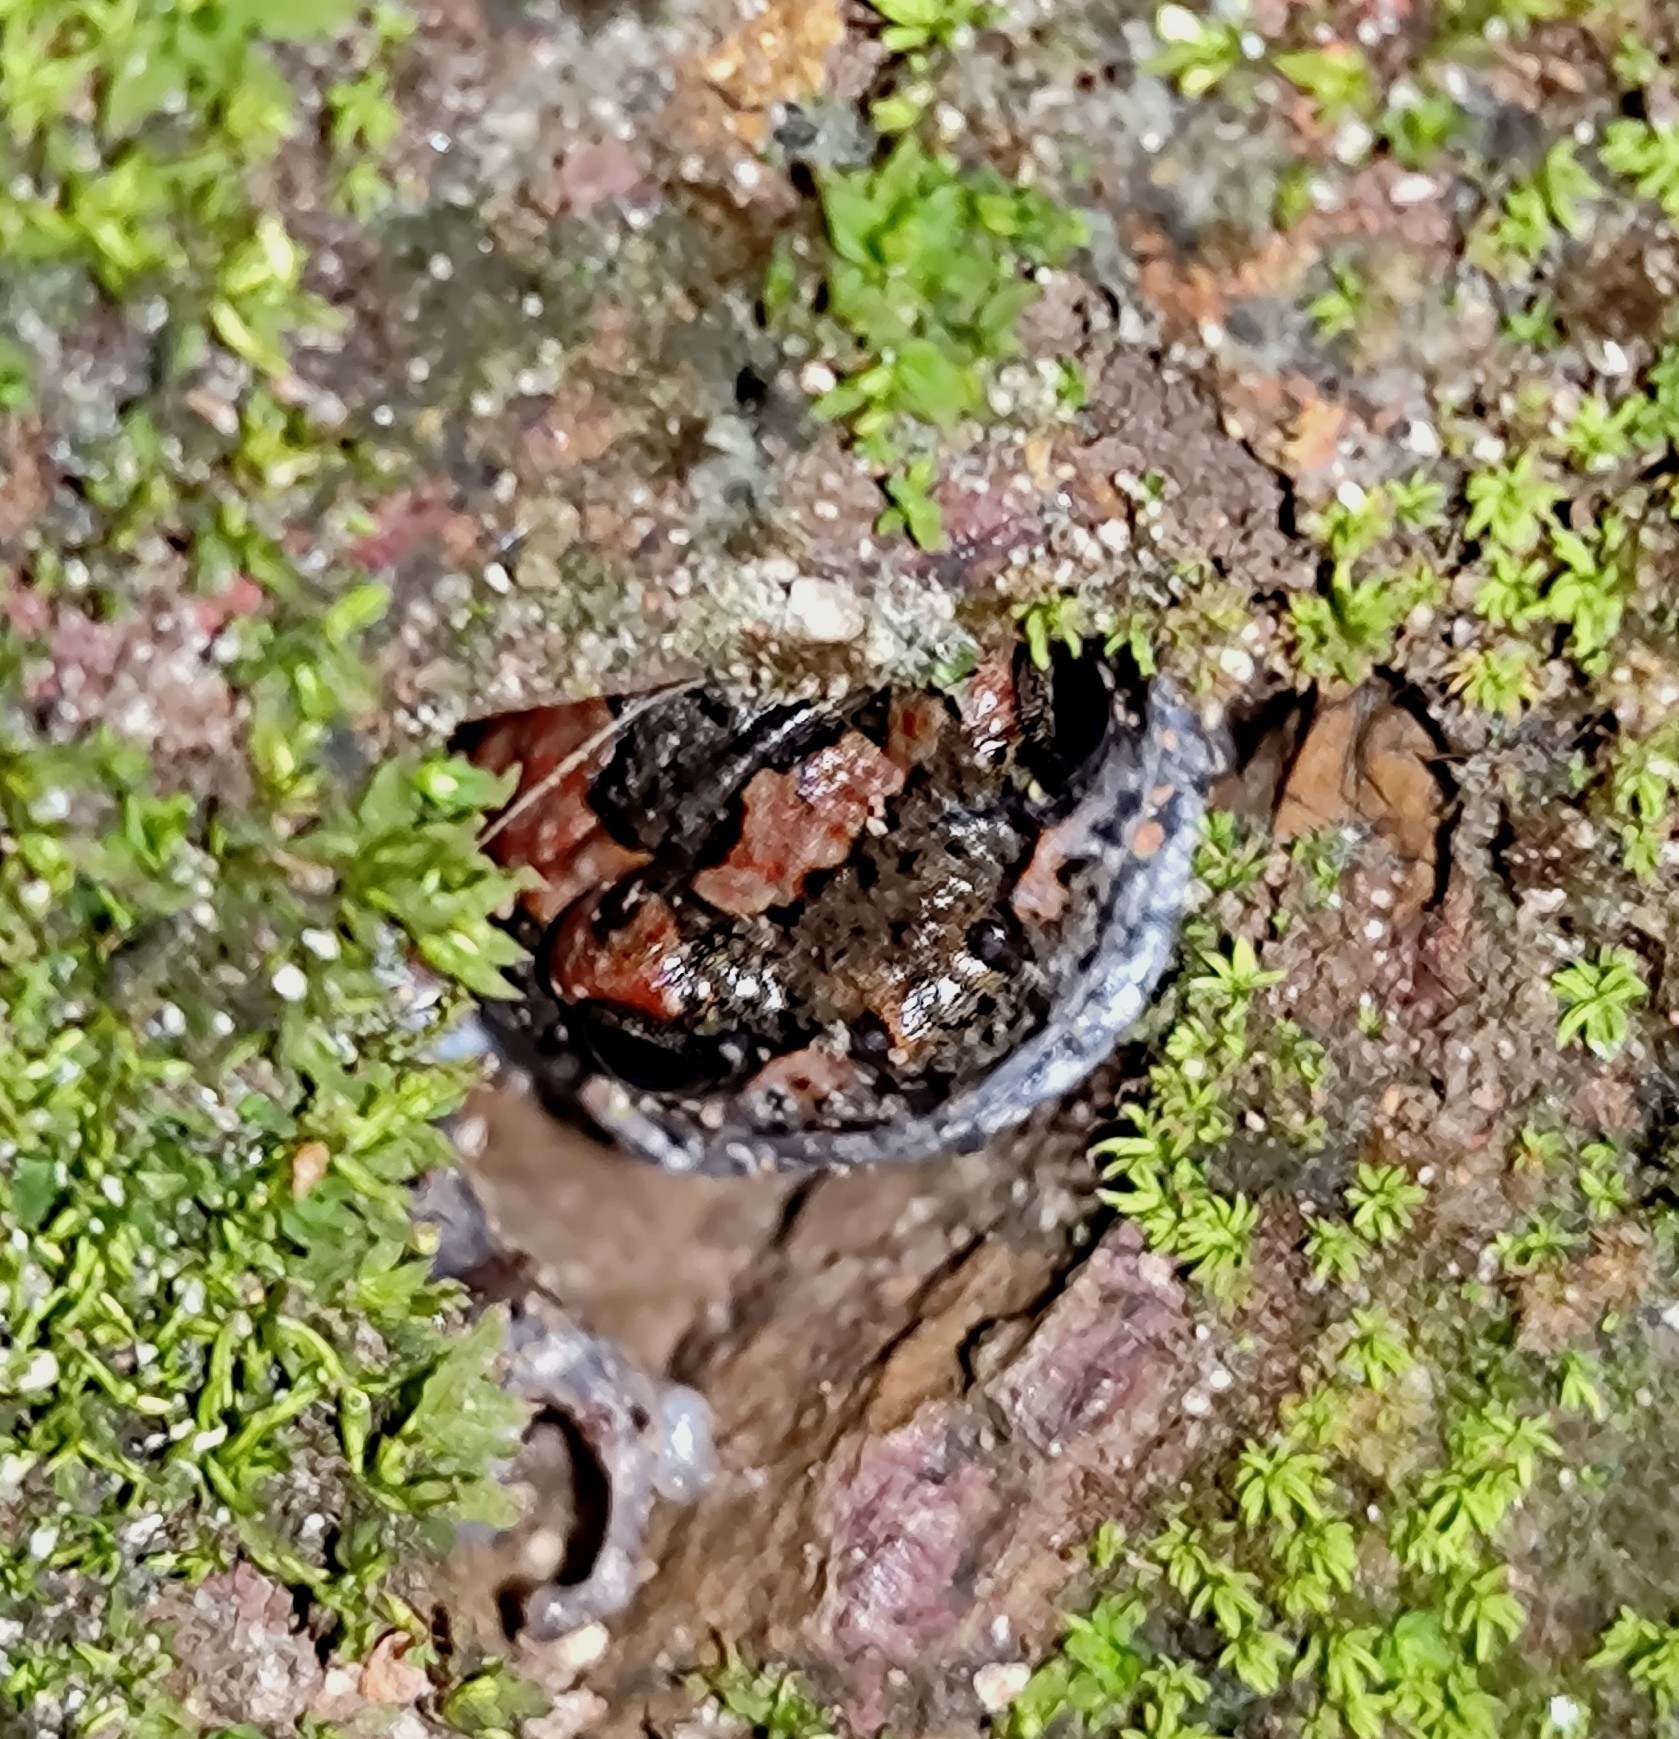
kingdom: Animalia
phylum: Chordata
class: Amphibia
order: Anura
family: Microhylidae
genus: Uperodon
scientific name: Uperodon taprobanicus
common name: Ceylon kaloula
